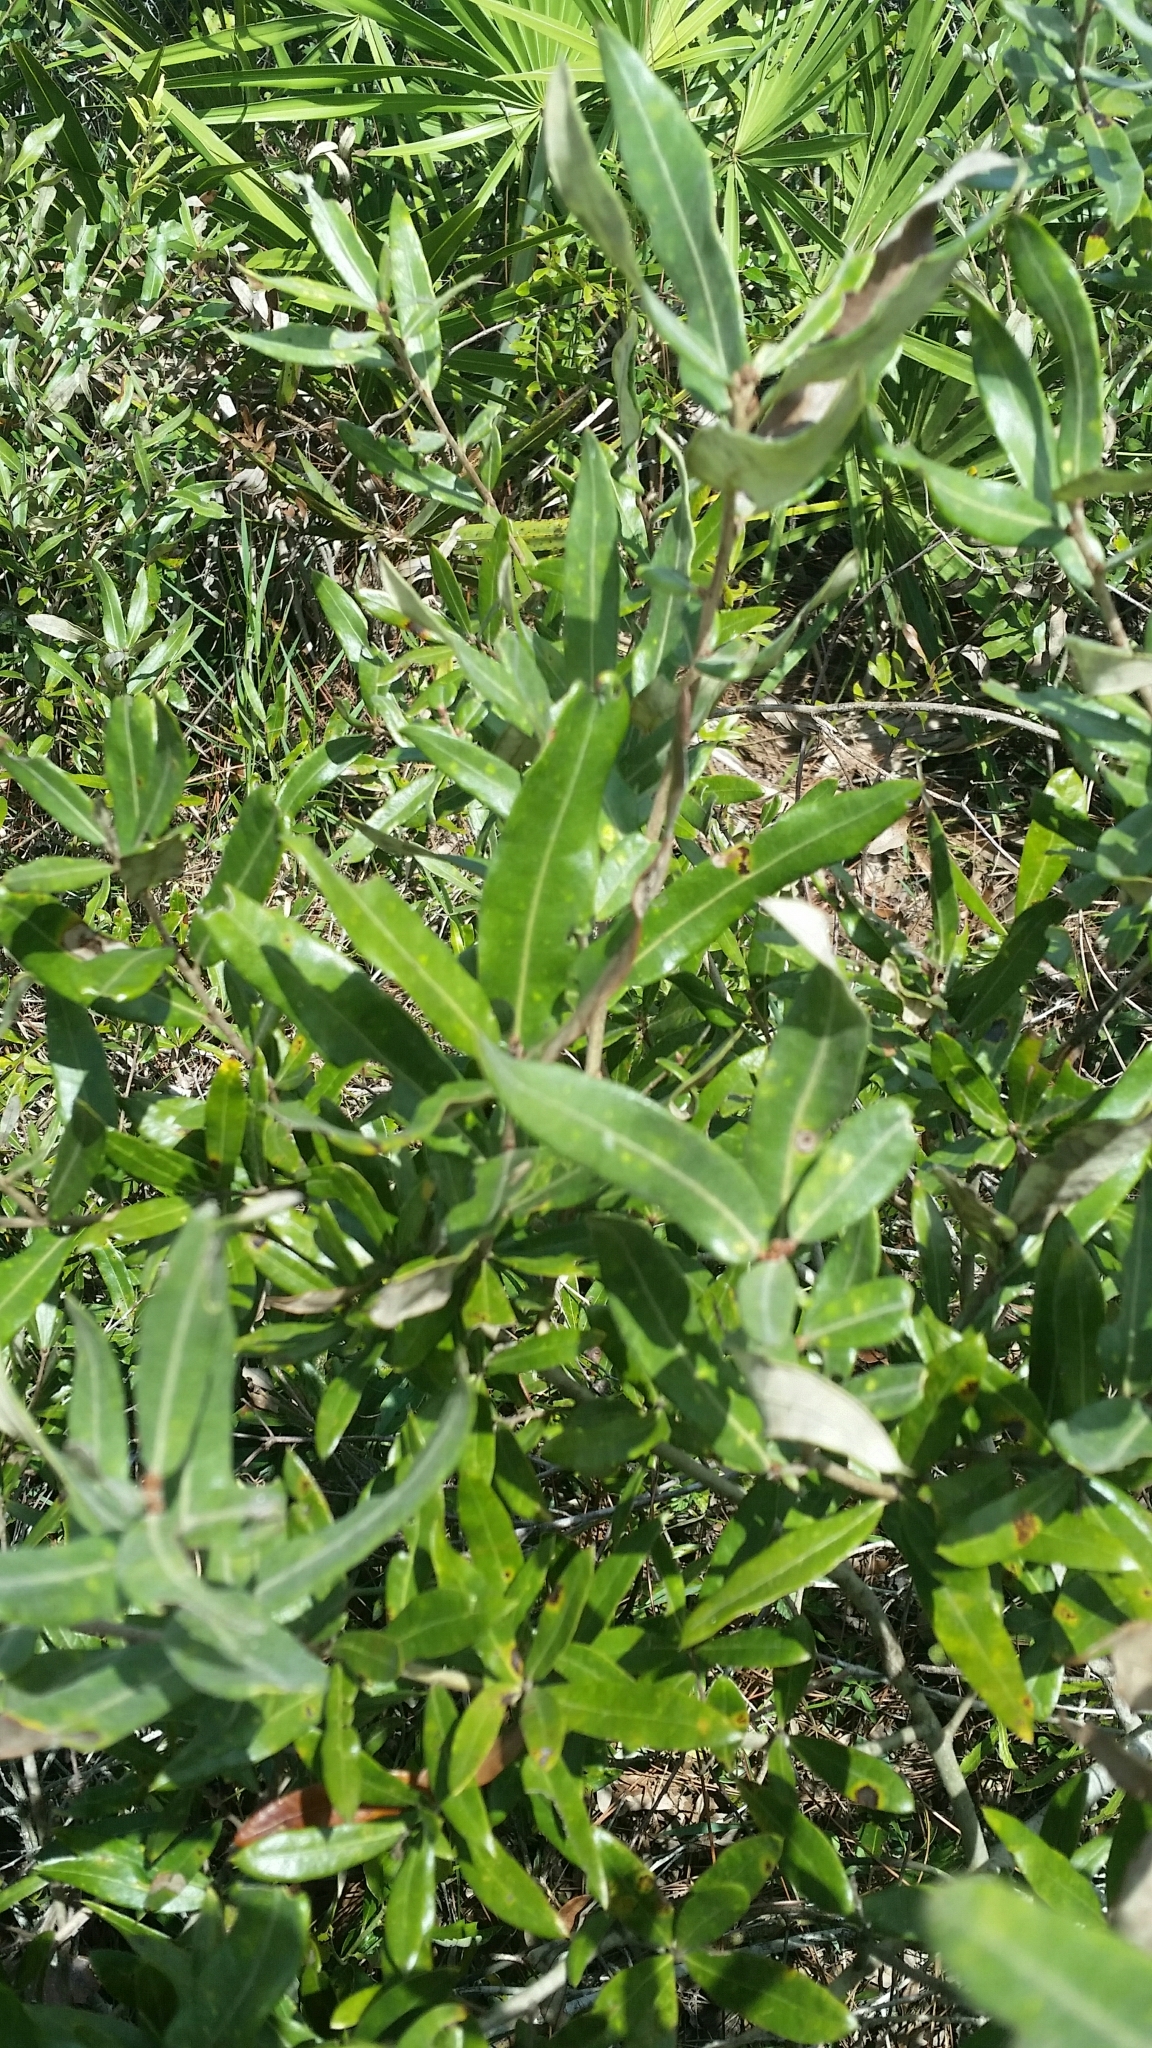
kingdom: Plantae
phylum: Tracheophyta
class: Magnoliopsida
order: Fagales
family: Fagaceae
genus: Quercus
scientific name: Quercus pumila
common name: Runner oak
